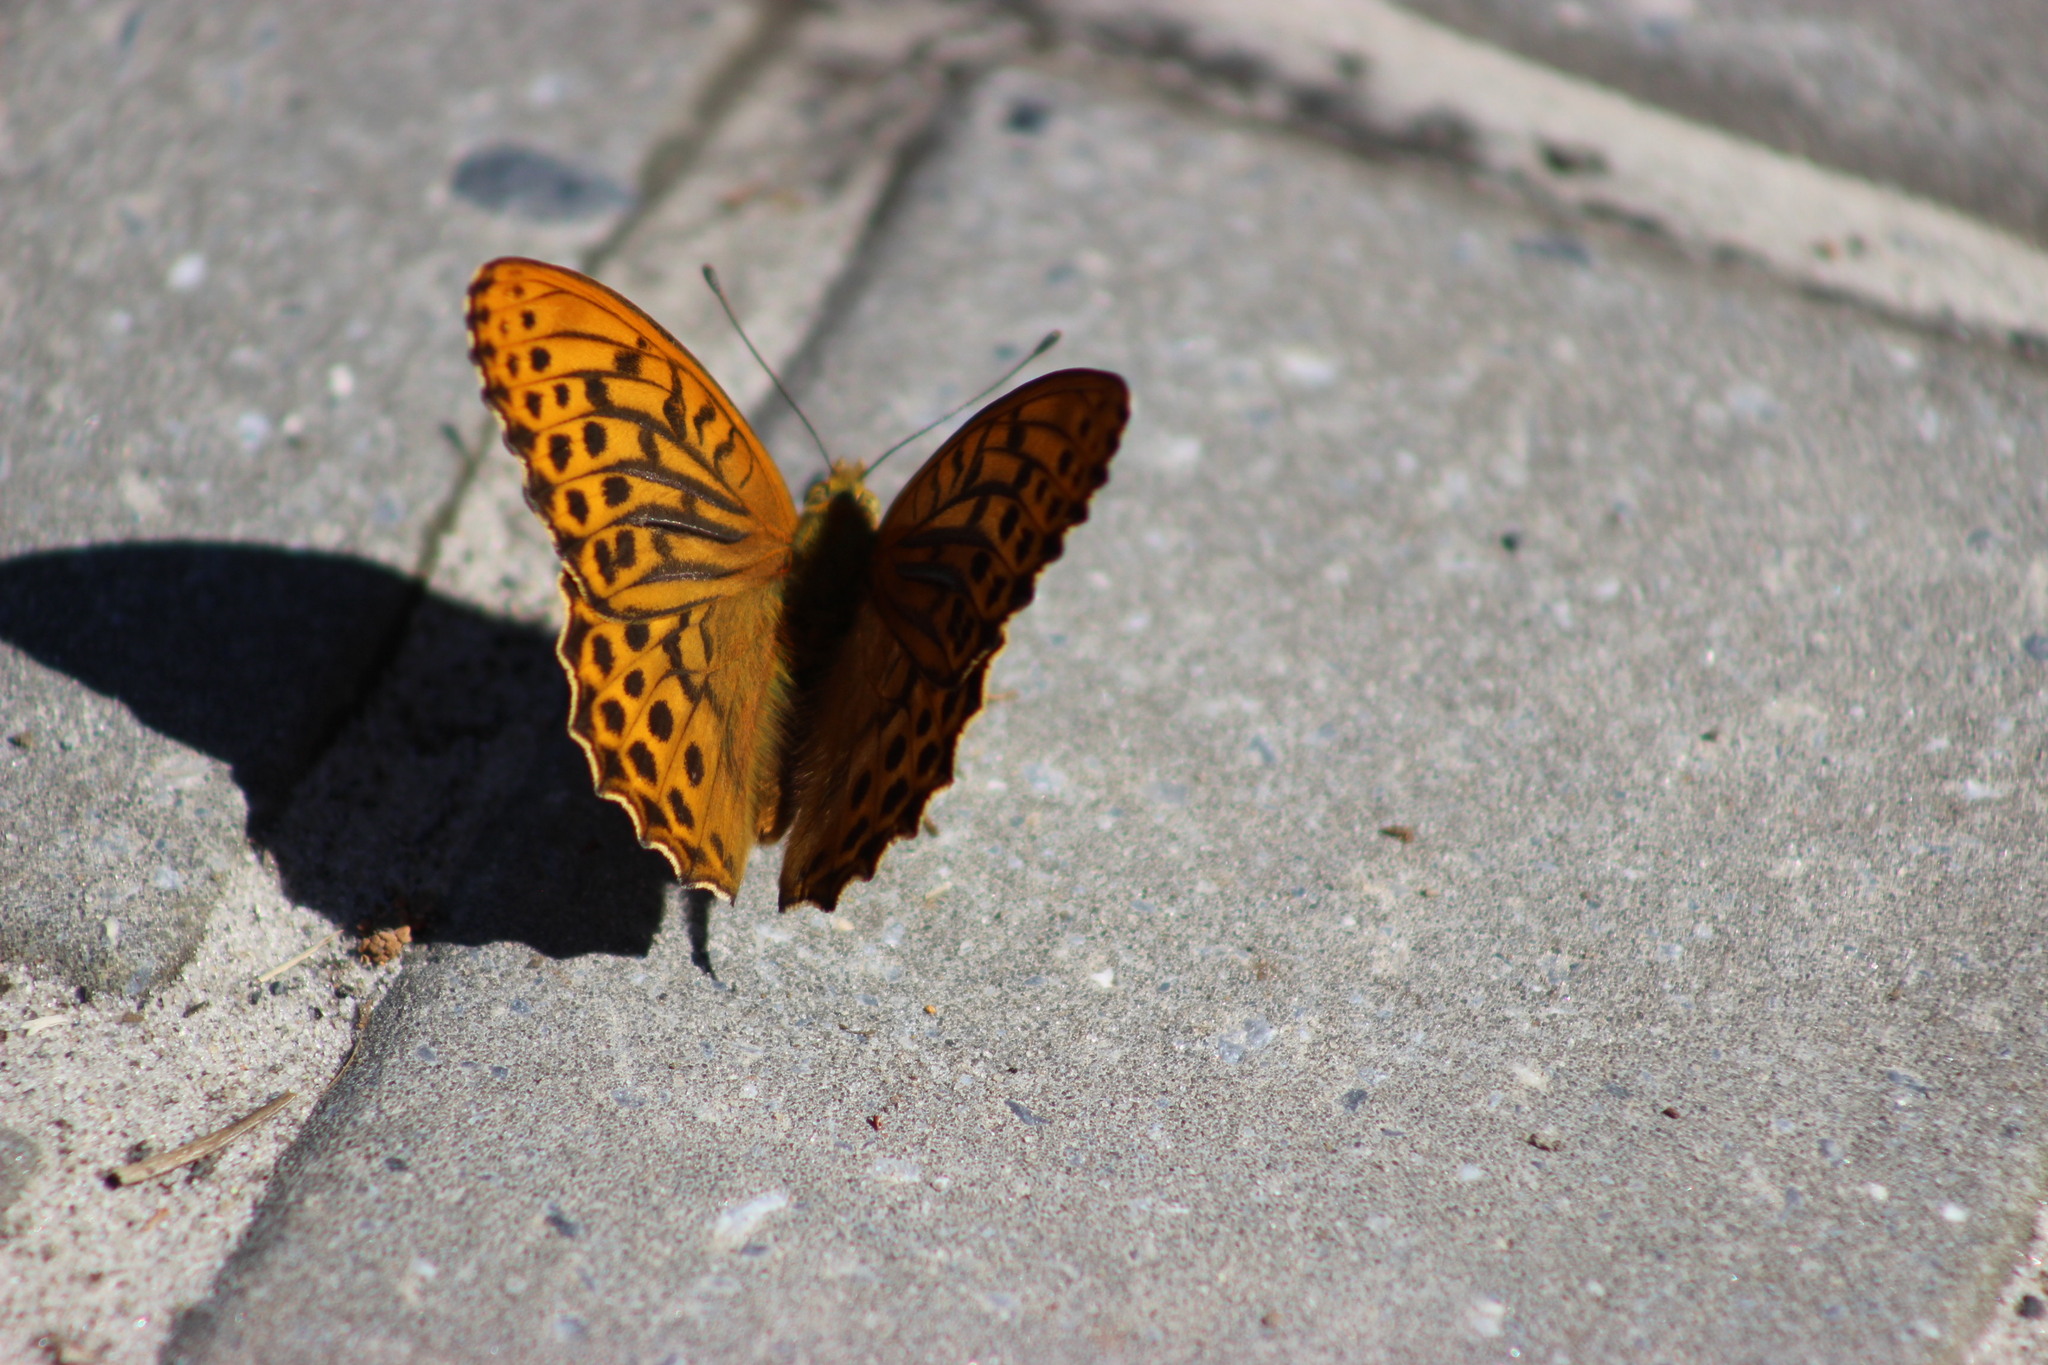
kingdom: Animalia
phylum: Arthropoda
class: Insecta
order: Lepidoptera
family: Nymphalidae
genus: Argynnis
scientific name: Argynnis paphia
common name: Silver-washed fritillary
